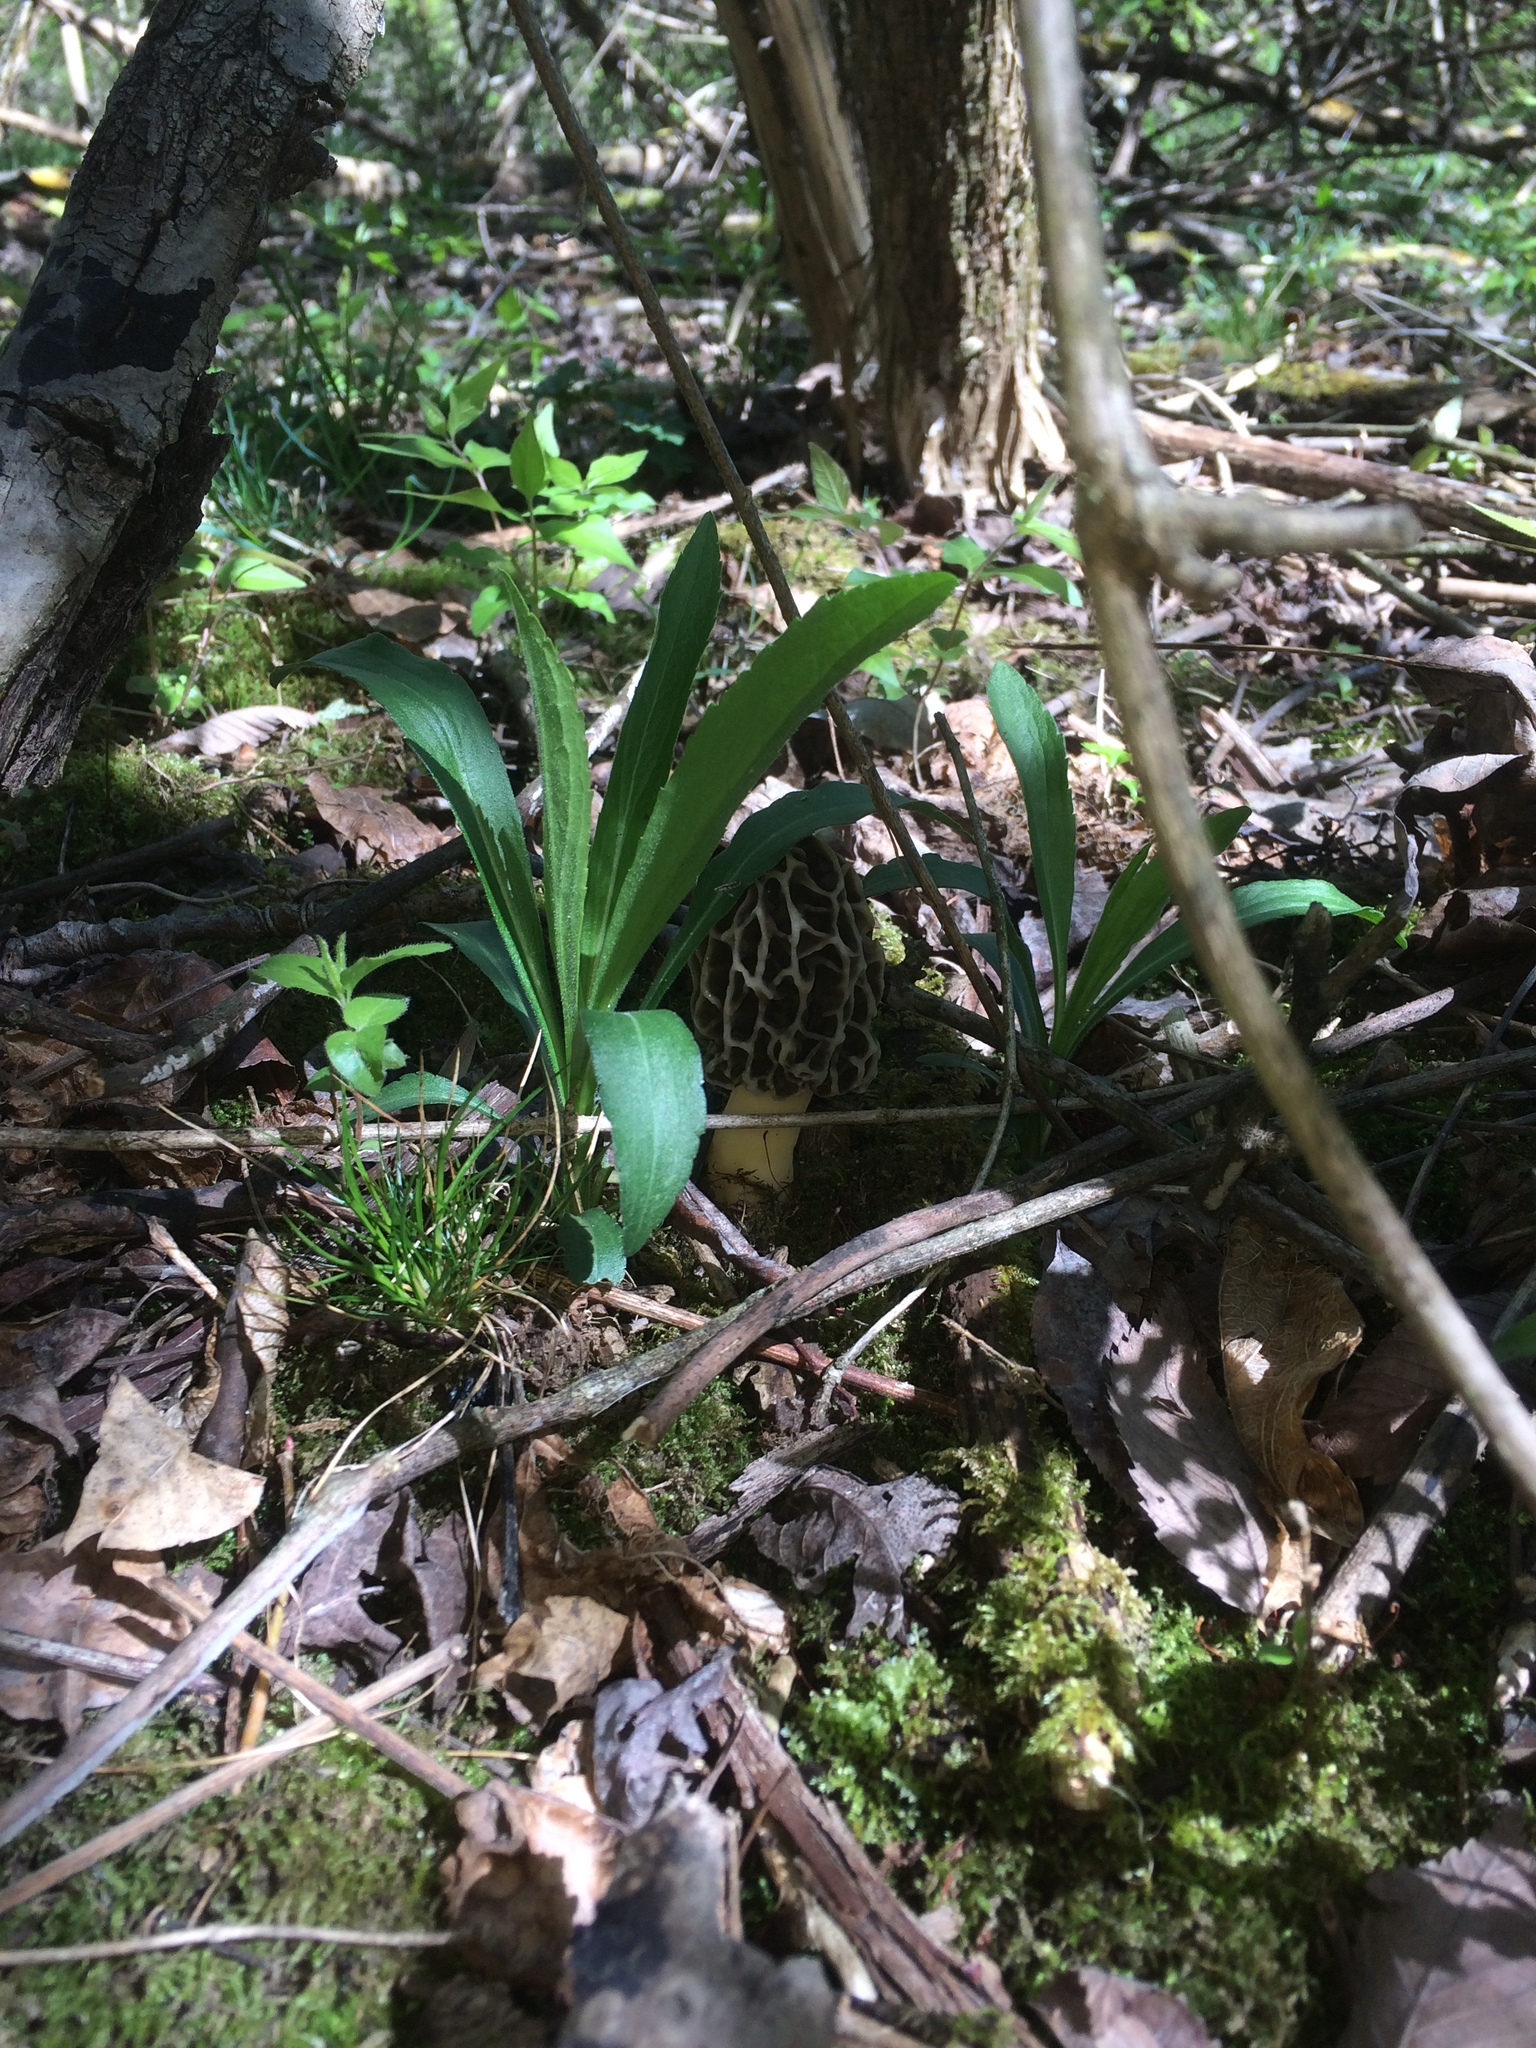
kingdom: Fungi
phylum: Ascomycota
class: Pezizomycetes
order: Pezizales
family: Morchellaceae
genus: Morchella
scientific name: Morchella americana
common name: White morel
